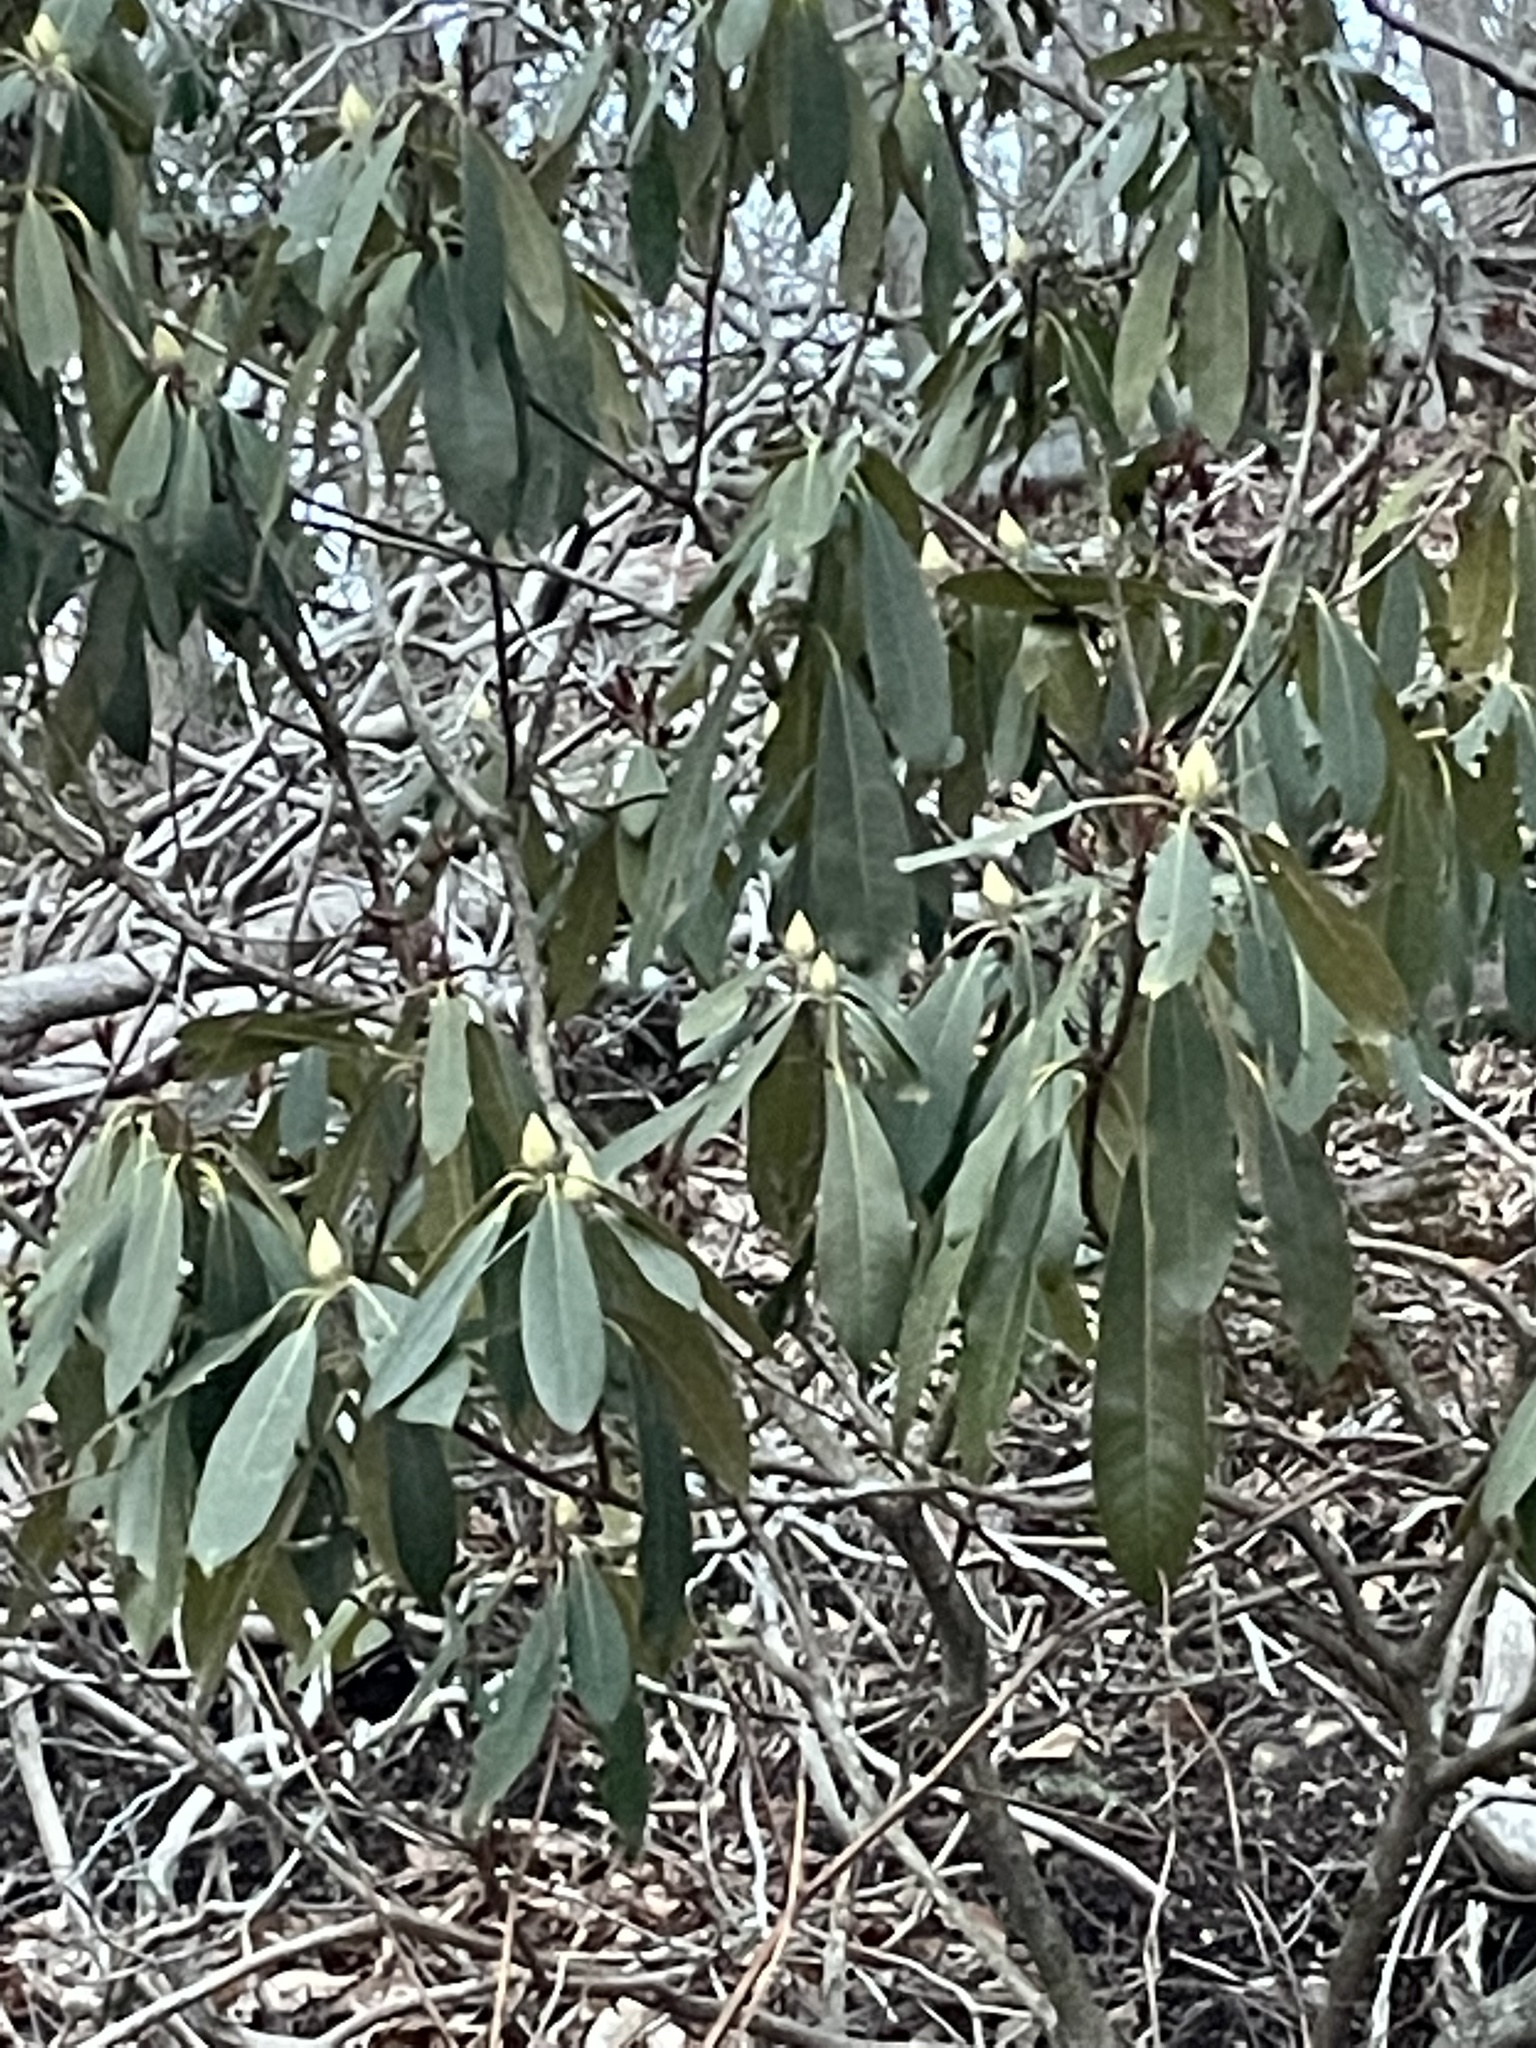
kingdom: Plantae
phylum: Tracheophyta
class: Magnoliopsida
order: Ericales
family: Ericaceae
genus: Rhododendron
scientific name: Rhododendron maximum
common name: Great rhododendron
